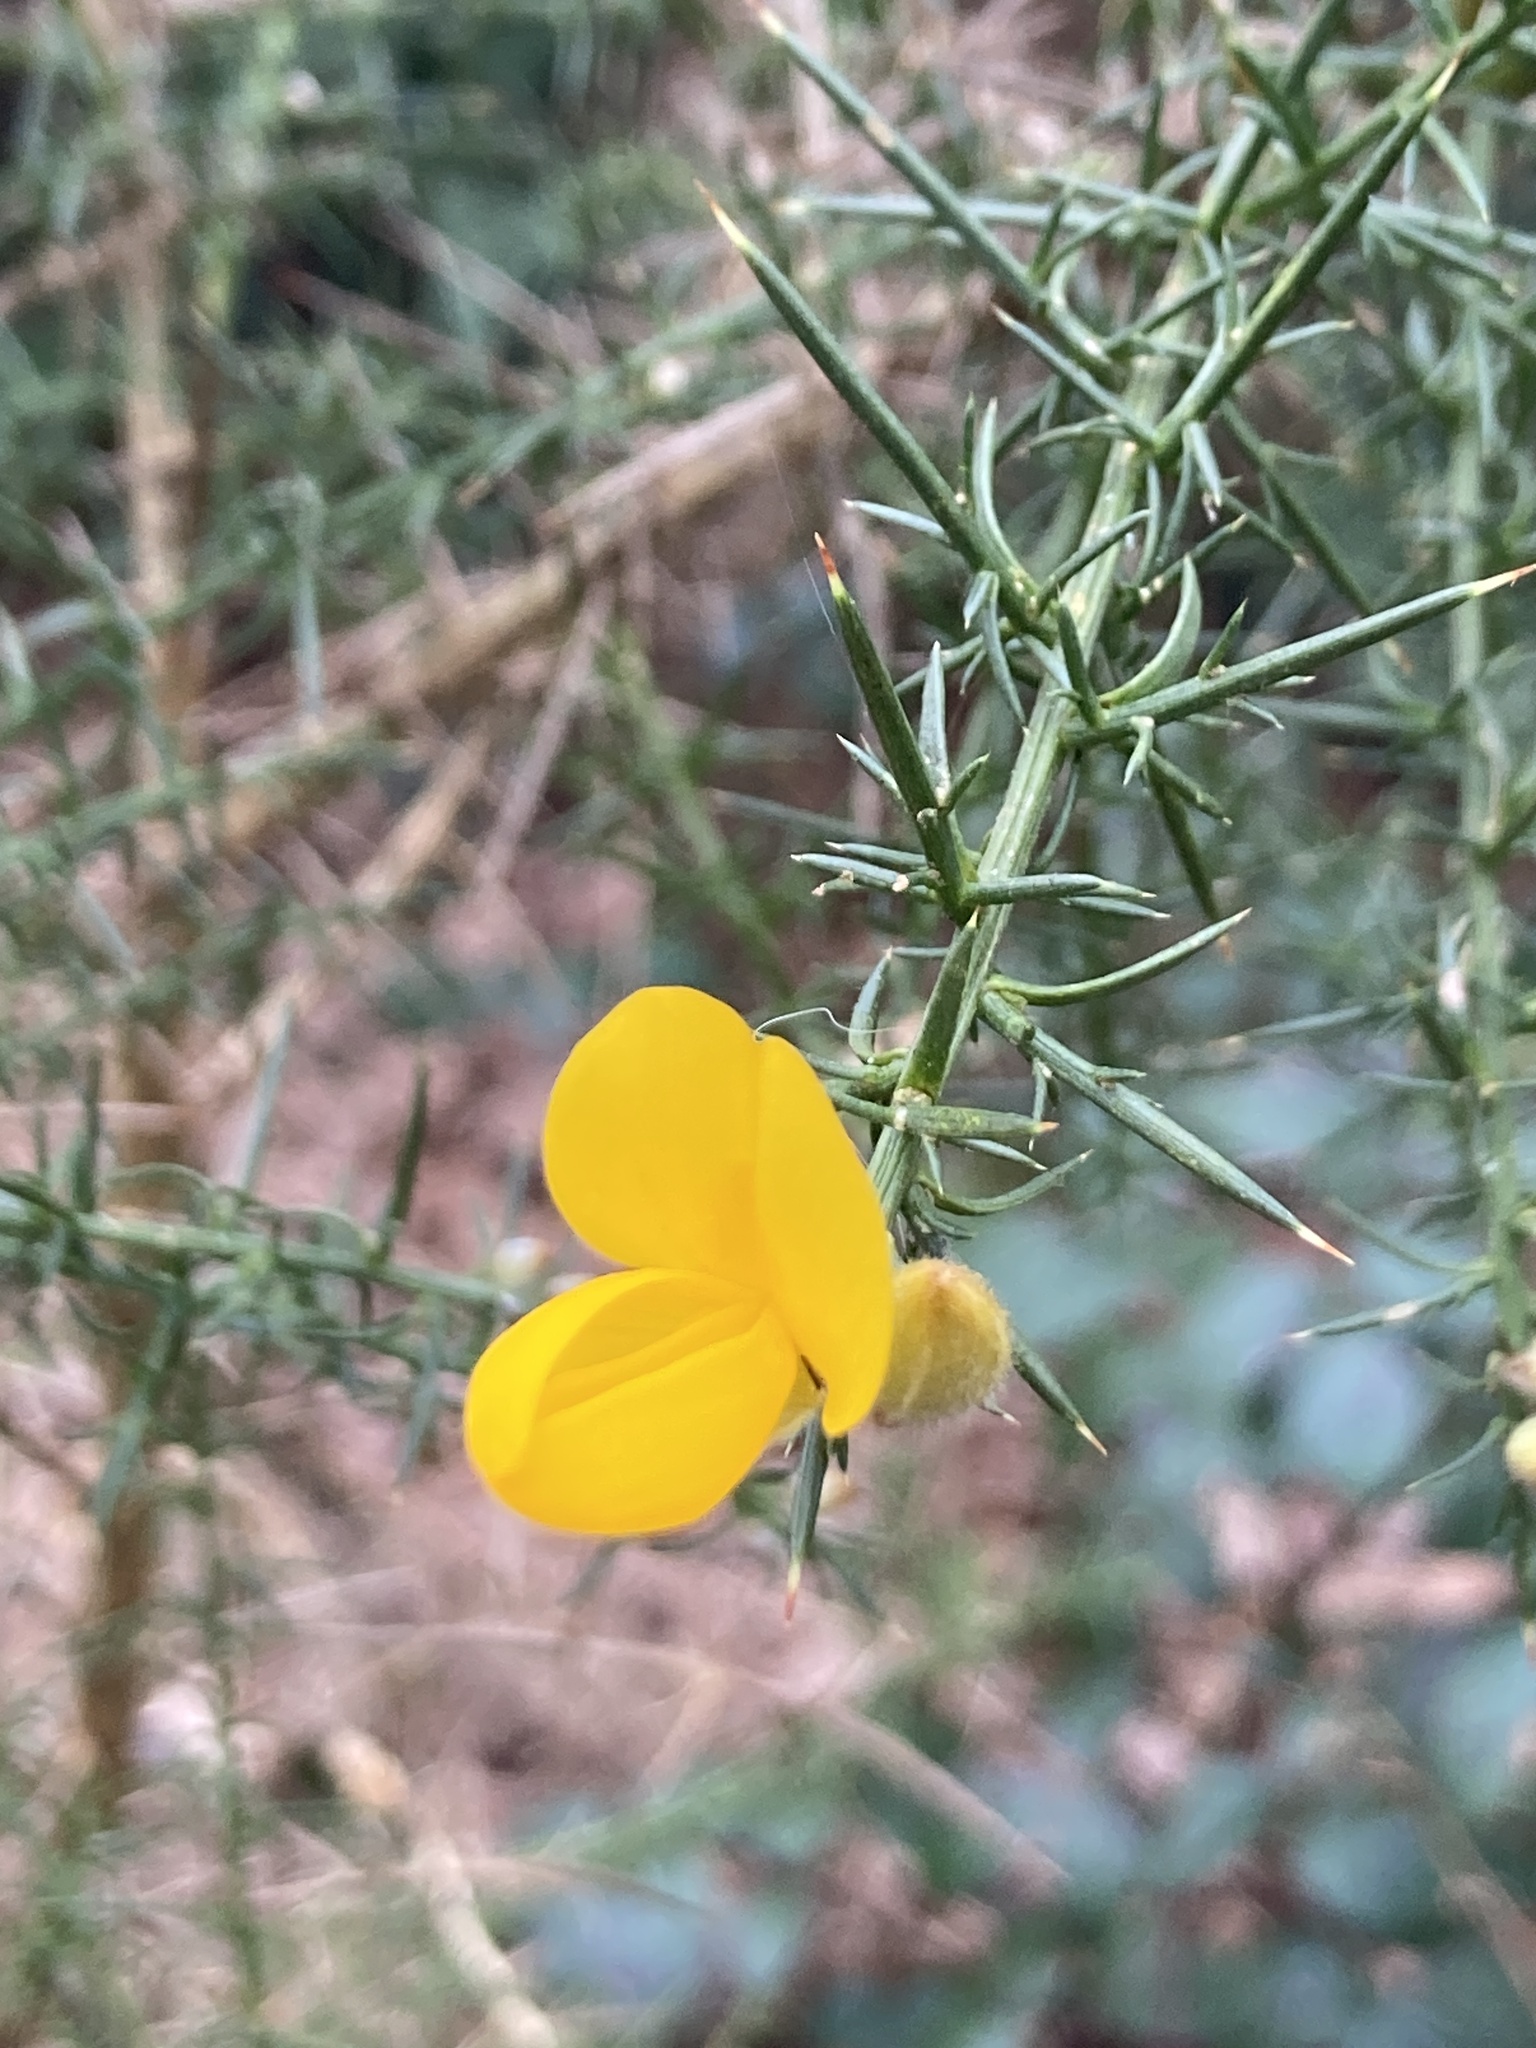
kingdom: Plantae
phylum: Tracheophyta
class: Magnoliopsida
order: Fabales
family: Fabaceae
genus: Ulex
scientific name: Ulex europaeus
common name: Common gorse
